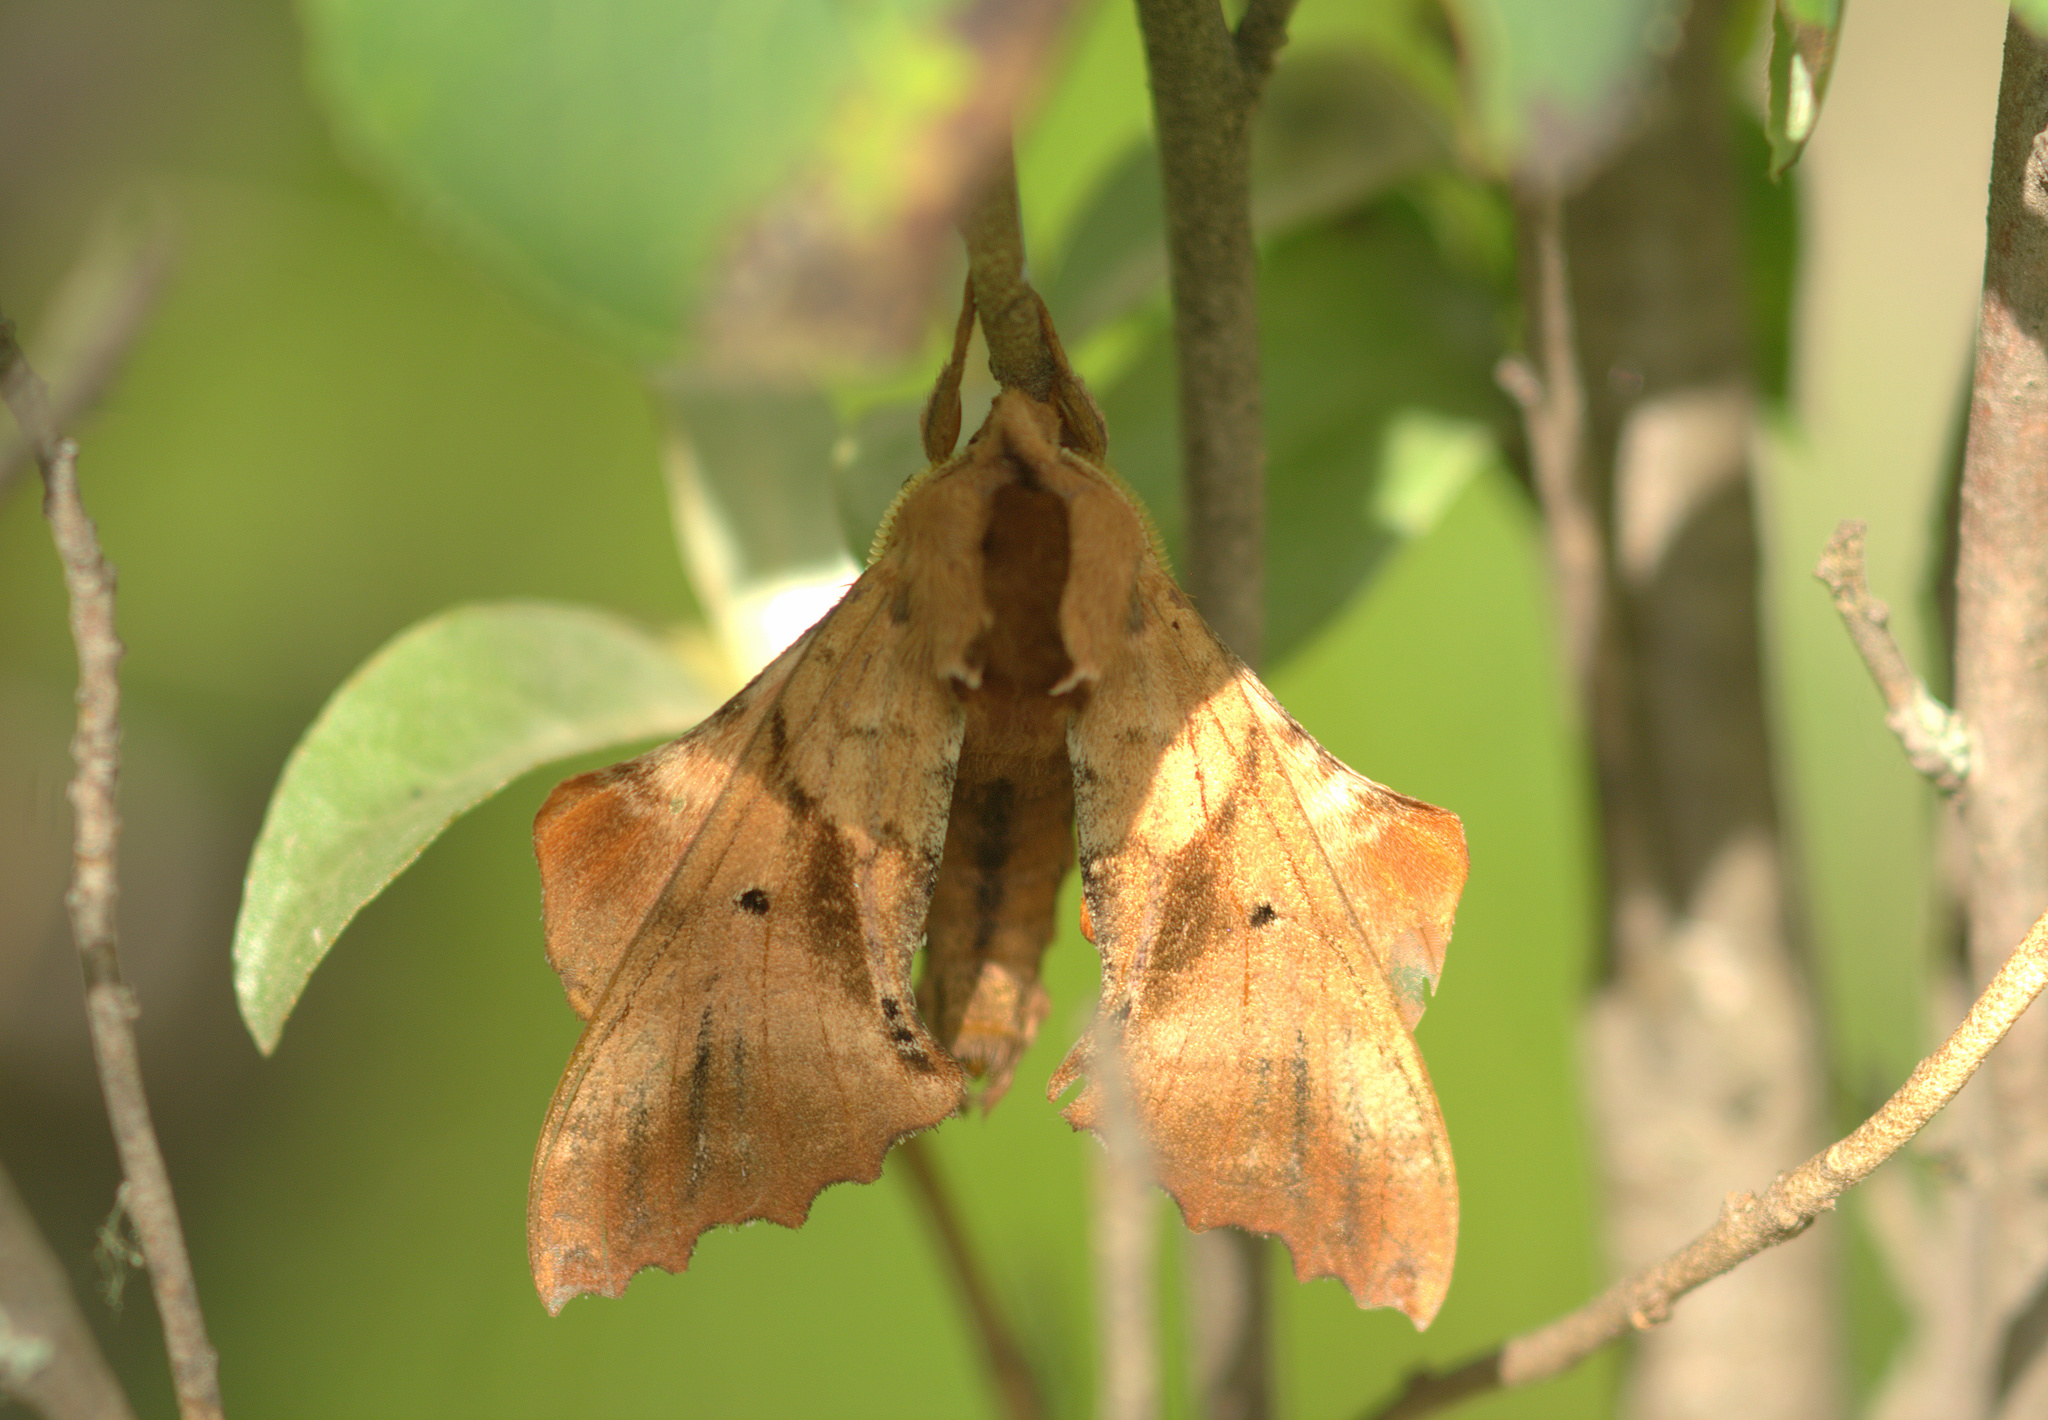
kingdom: Animalia
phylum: Arthropoda
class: Insecta
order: Lepidoptera
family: Sphingidae
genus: Paonias
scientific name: Paonias excaecata
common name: Blind-eyed sphinx
